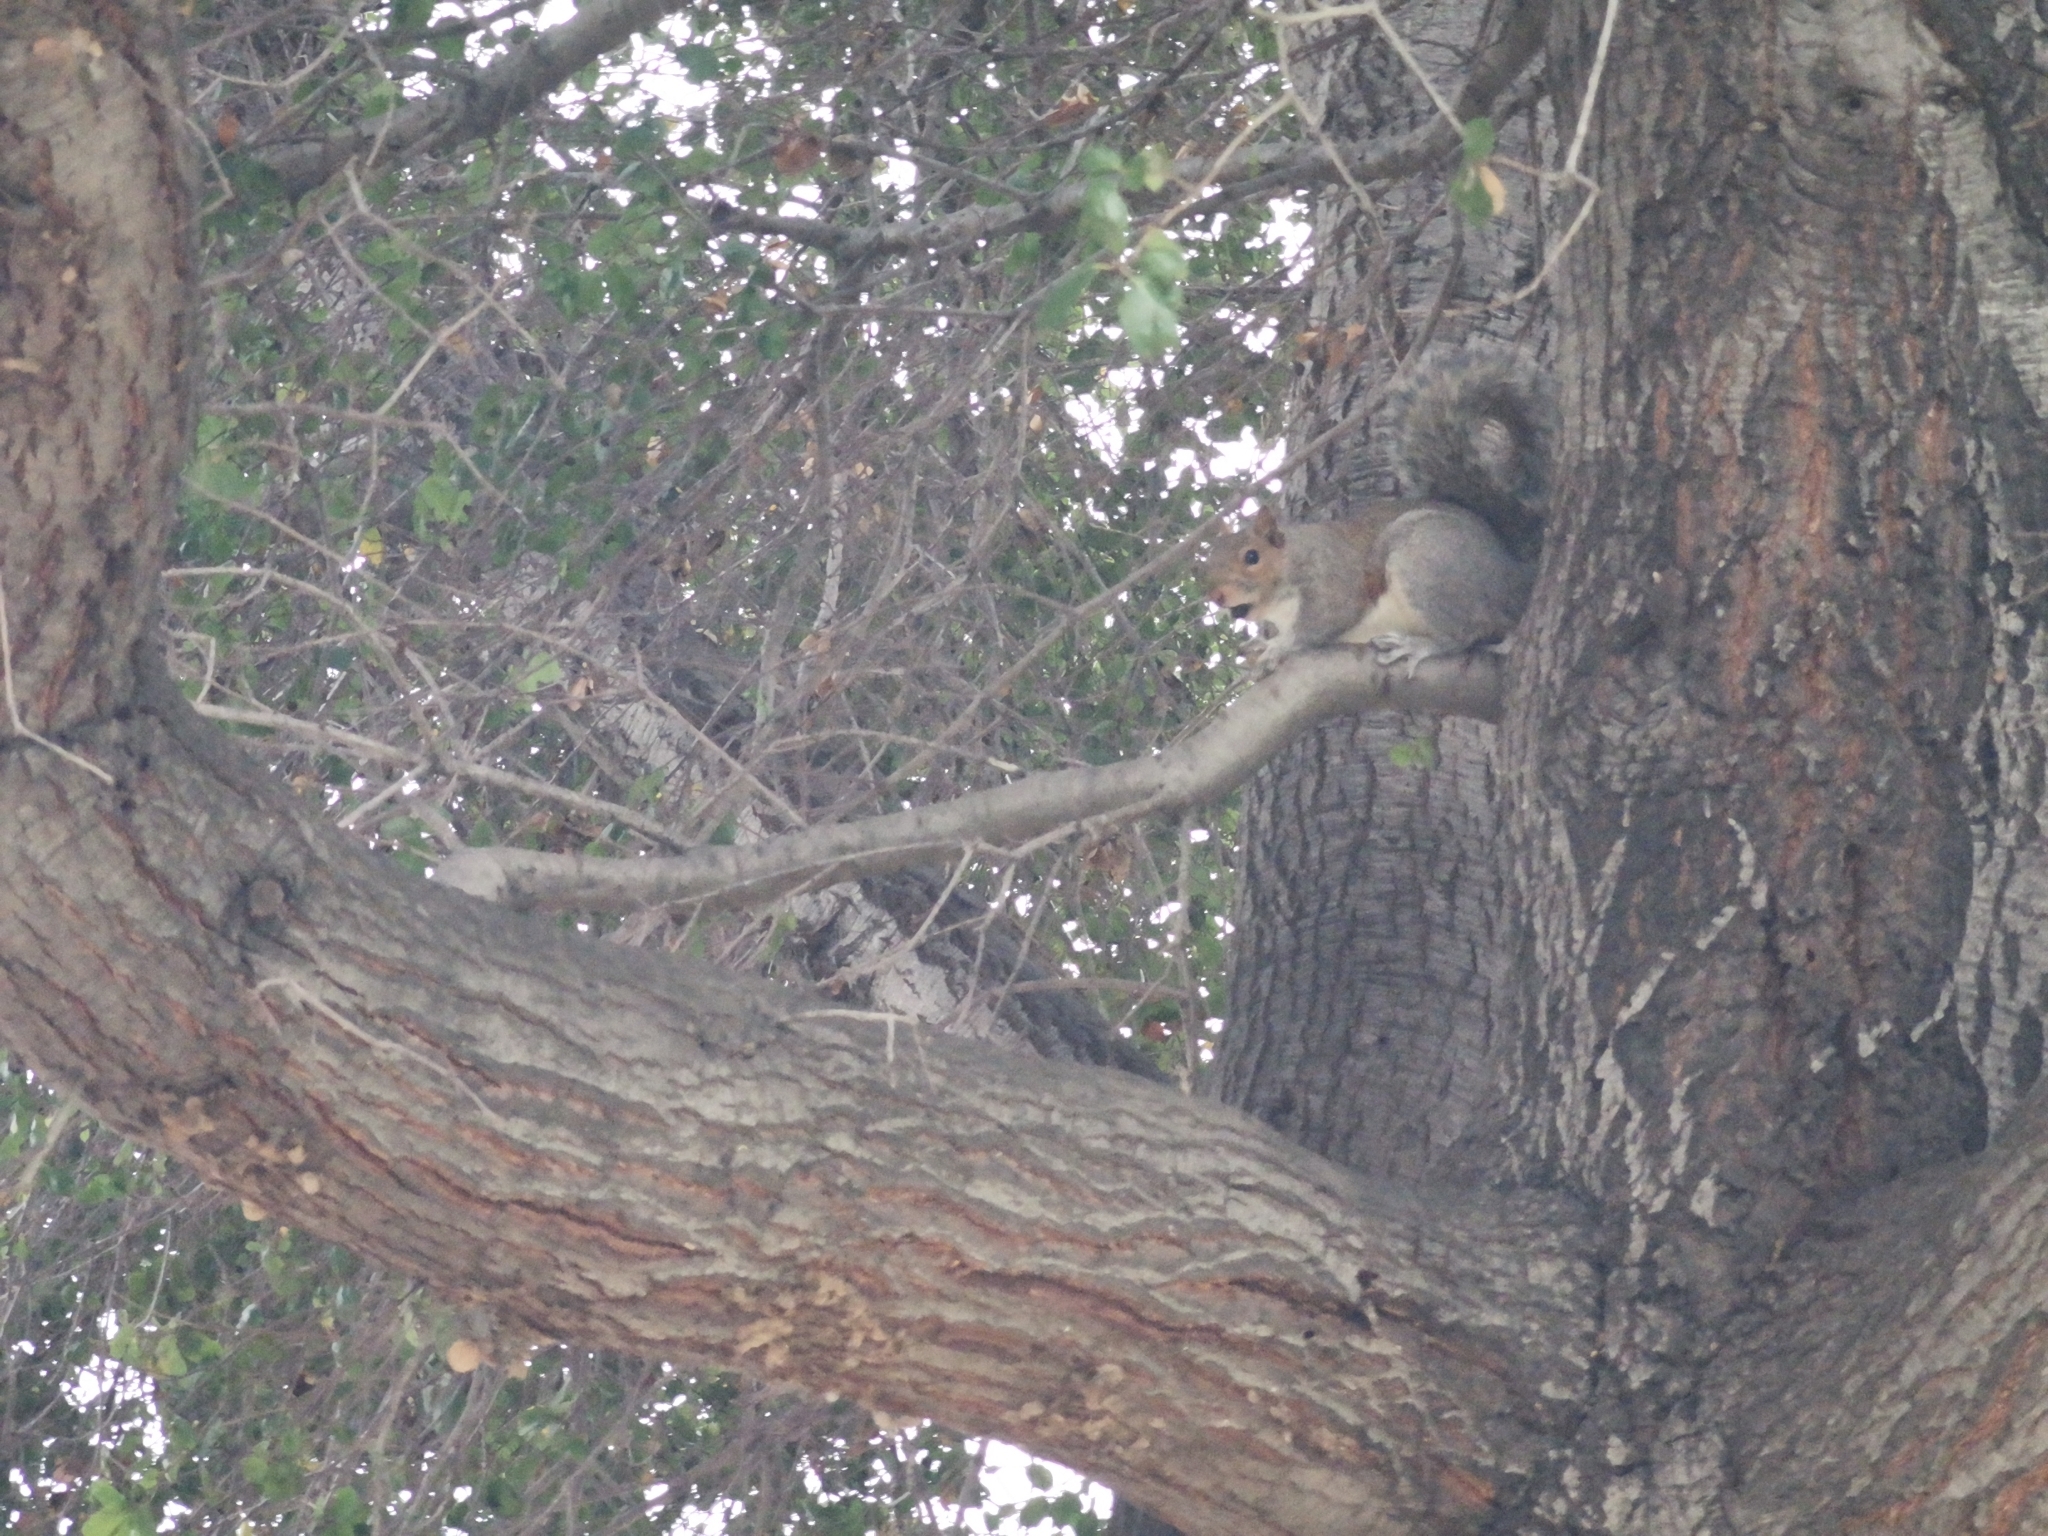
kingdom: Animalia
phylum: Chordata
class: Mammalia
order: Rodentia
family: Sciuridae
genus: Sciurus
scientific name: Sciurus carolinensis
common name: Eastern gray squirrel
